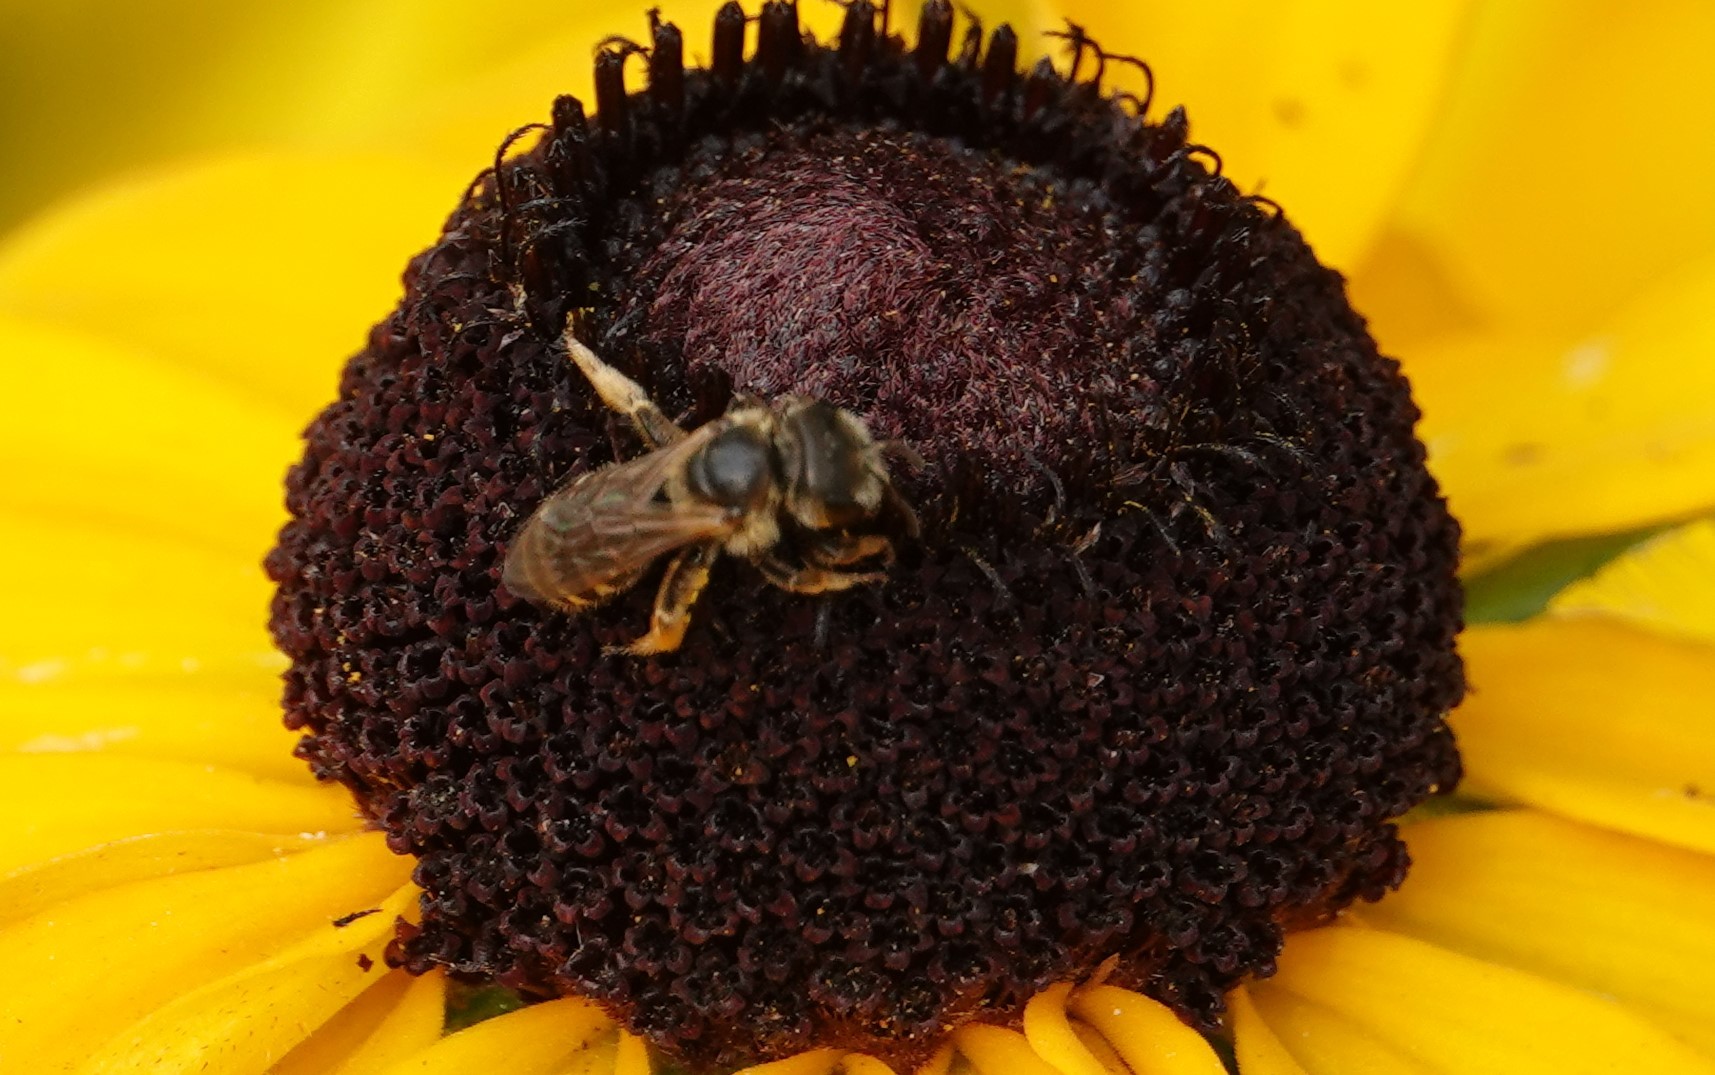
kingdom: Animalia
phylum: Arthropoda
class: Insecta
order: Hymenoptera
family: Halictidae
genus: Halictus
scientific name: Halictus ligatus
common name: Ligated furrow bee
